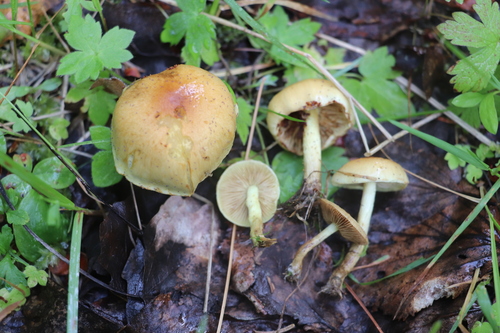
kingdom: Fungi
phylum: Basidiomycota
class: Agaricomycetes
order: Agaricales
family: Strophariaceae
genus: Pholiota
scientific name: Pholiota elegans
